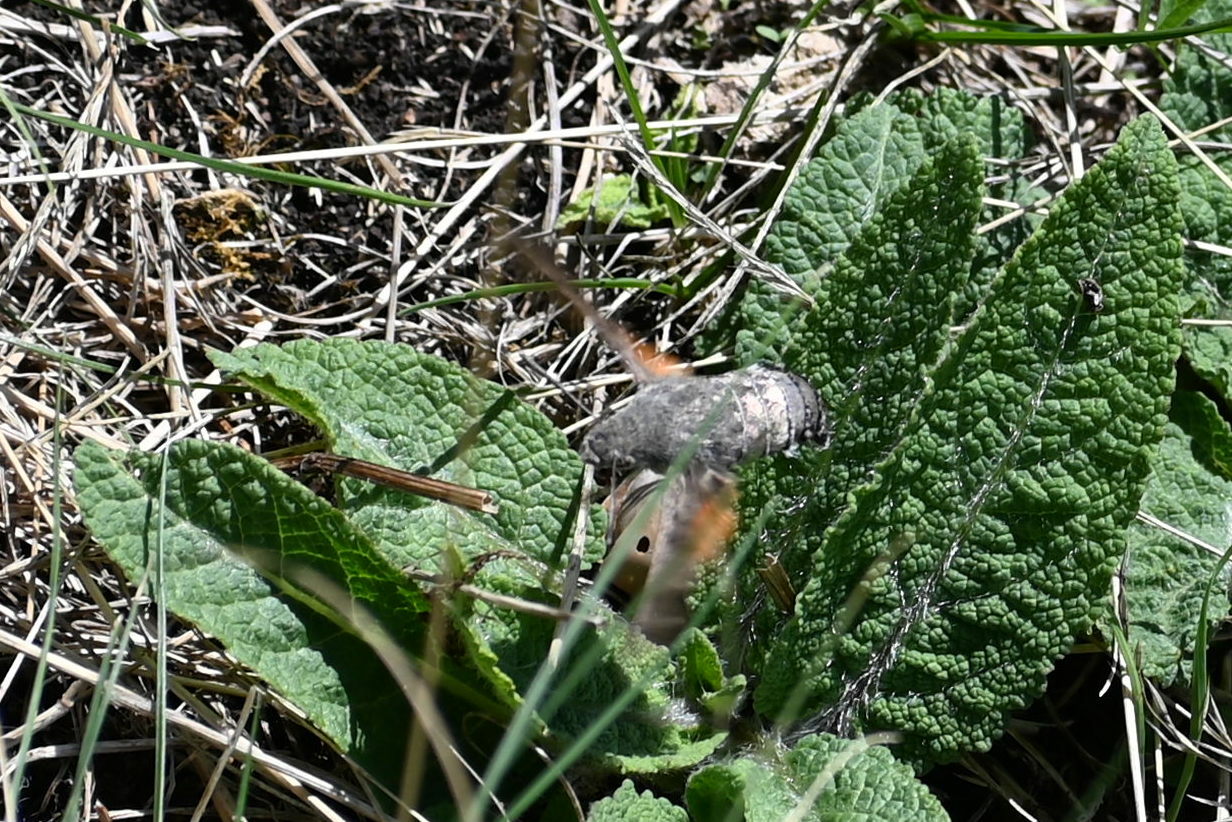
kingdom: Animalia
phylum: Arthropoda
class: Insecta
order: Lepidoptera
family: Sphingidae
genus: Macroglossum
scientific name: Macroglossum stellatarum
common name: Humming-bird hawk-moth
